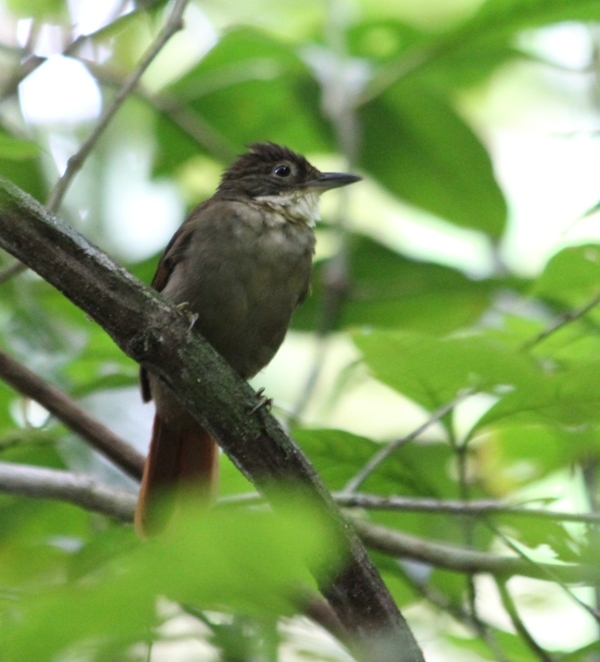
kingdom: Animalia
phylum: Chordata
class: Aves
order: Passeriformes
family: Furnariidae
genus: Automolus
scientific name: Automolus infuscatus
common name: Olive-backed foliage-gleaner
